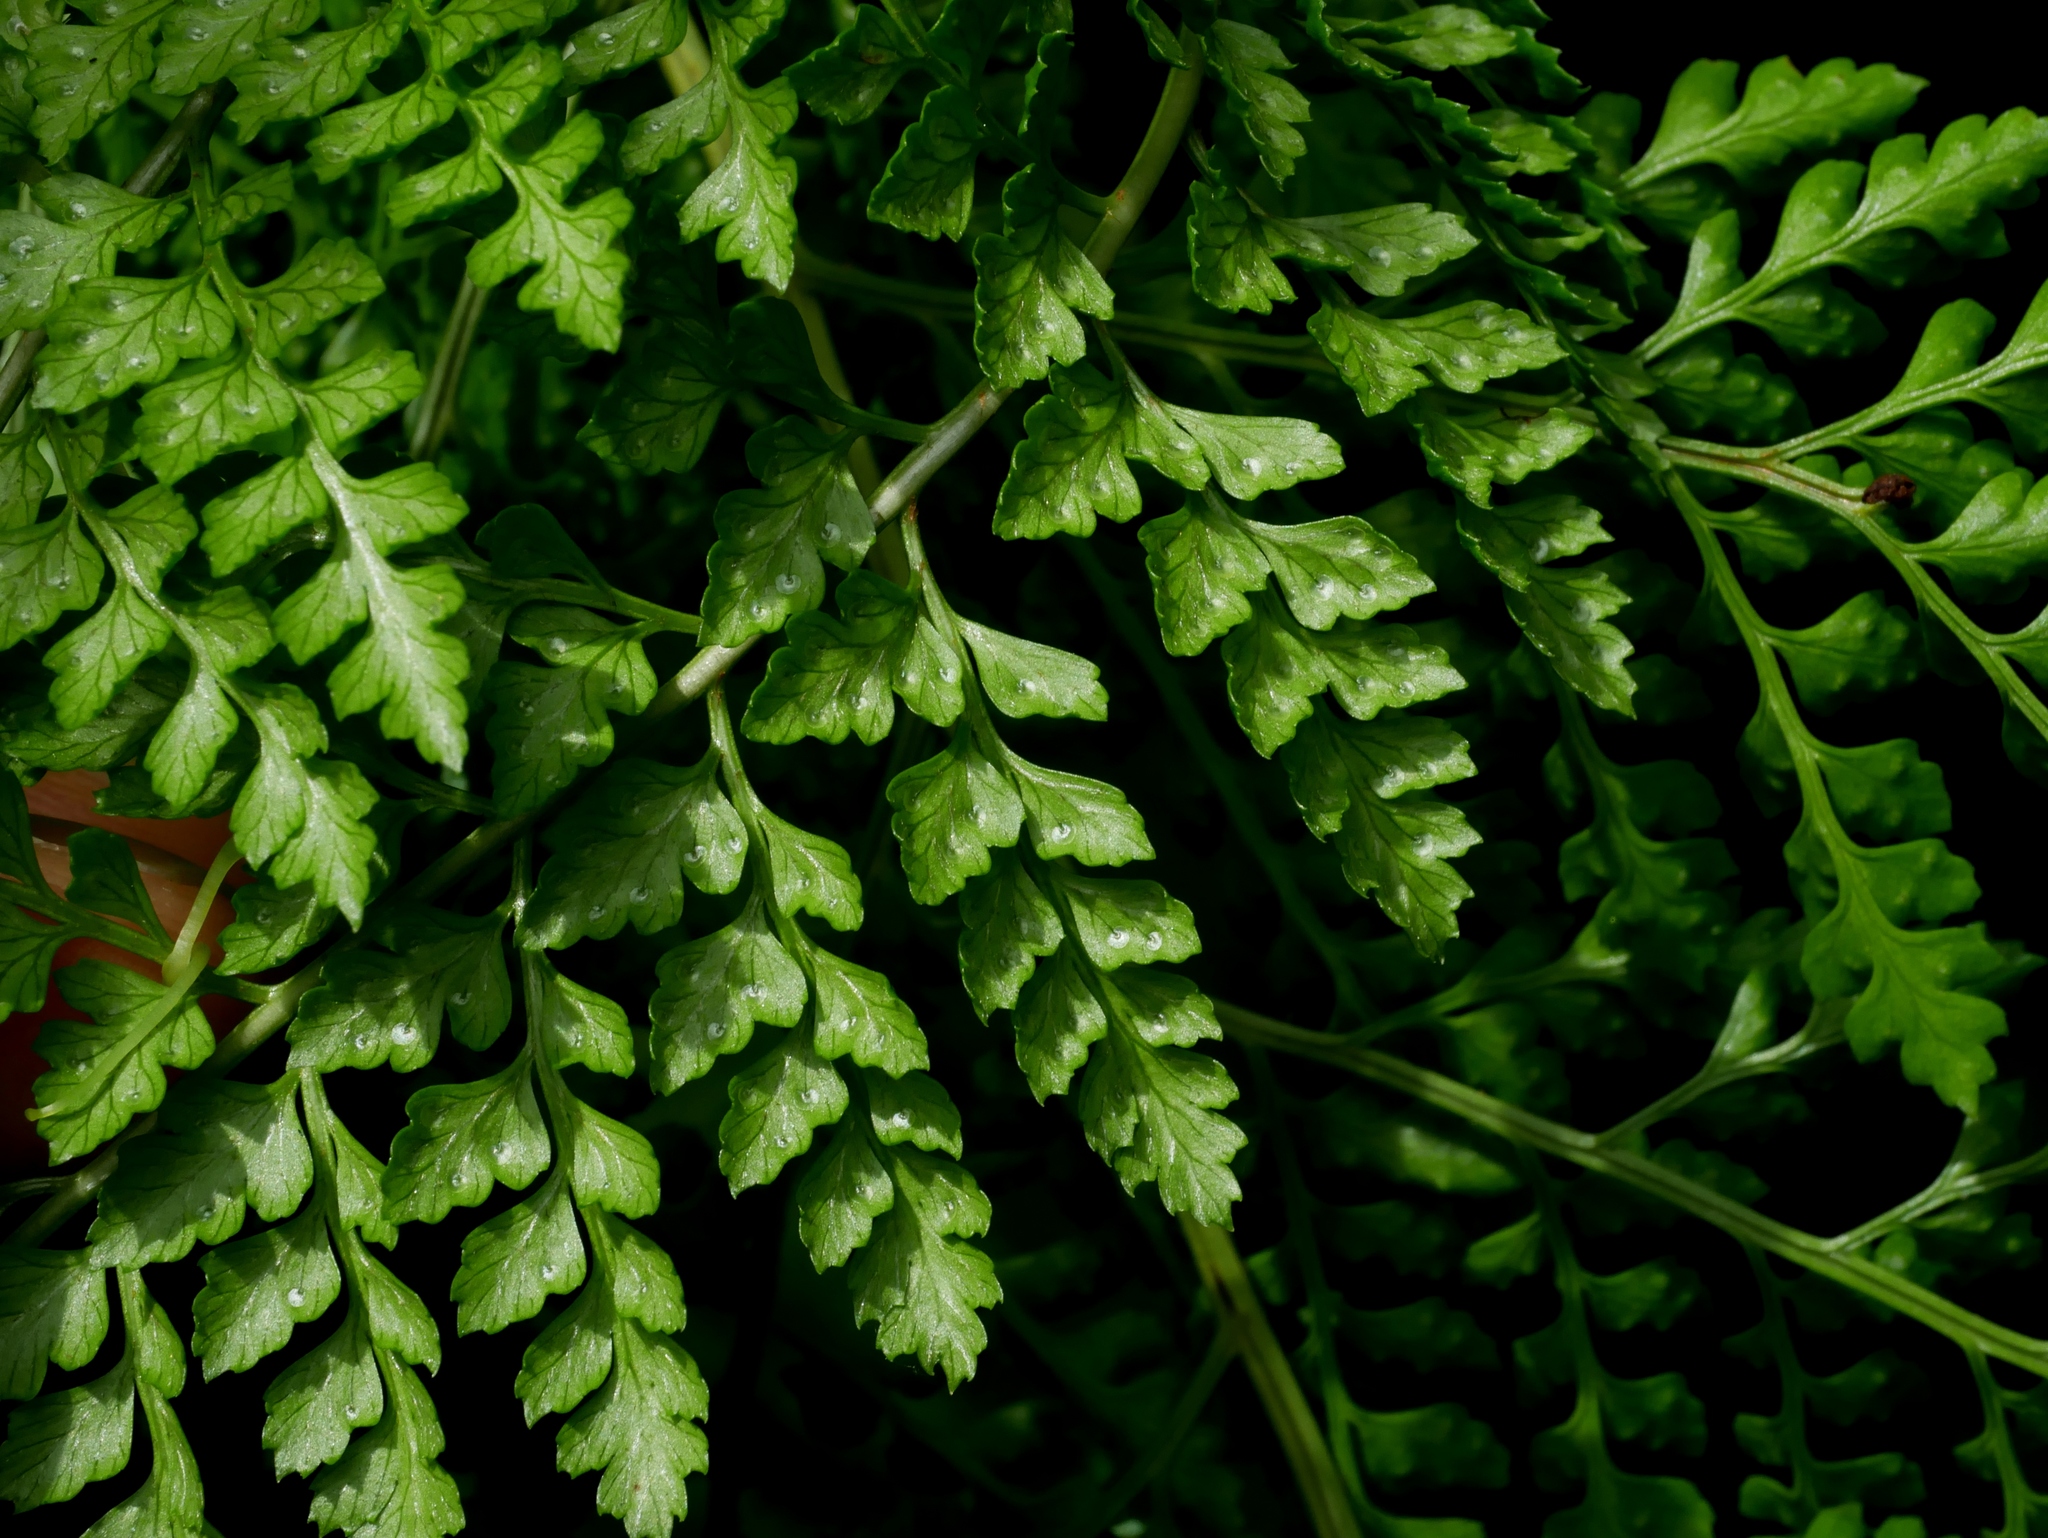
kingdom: Plantae
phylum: Tracheophyta
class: Polypodiopsida
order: Polypodiales
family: Dryopteridaceae
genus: Arachniodes
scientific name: Arachniodes festina
